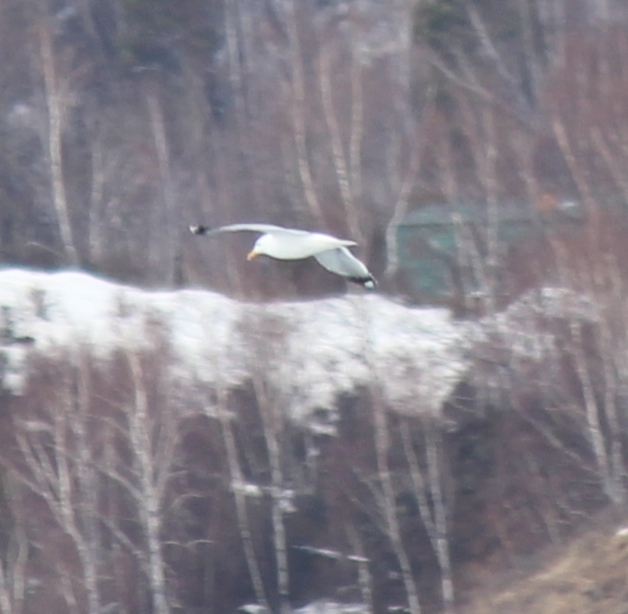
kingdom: Animalia
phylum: Chordata
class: Aves
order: Charadriiformes
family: Laridae
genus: Larus
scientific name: Larus vegae
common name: Vega gull
